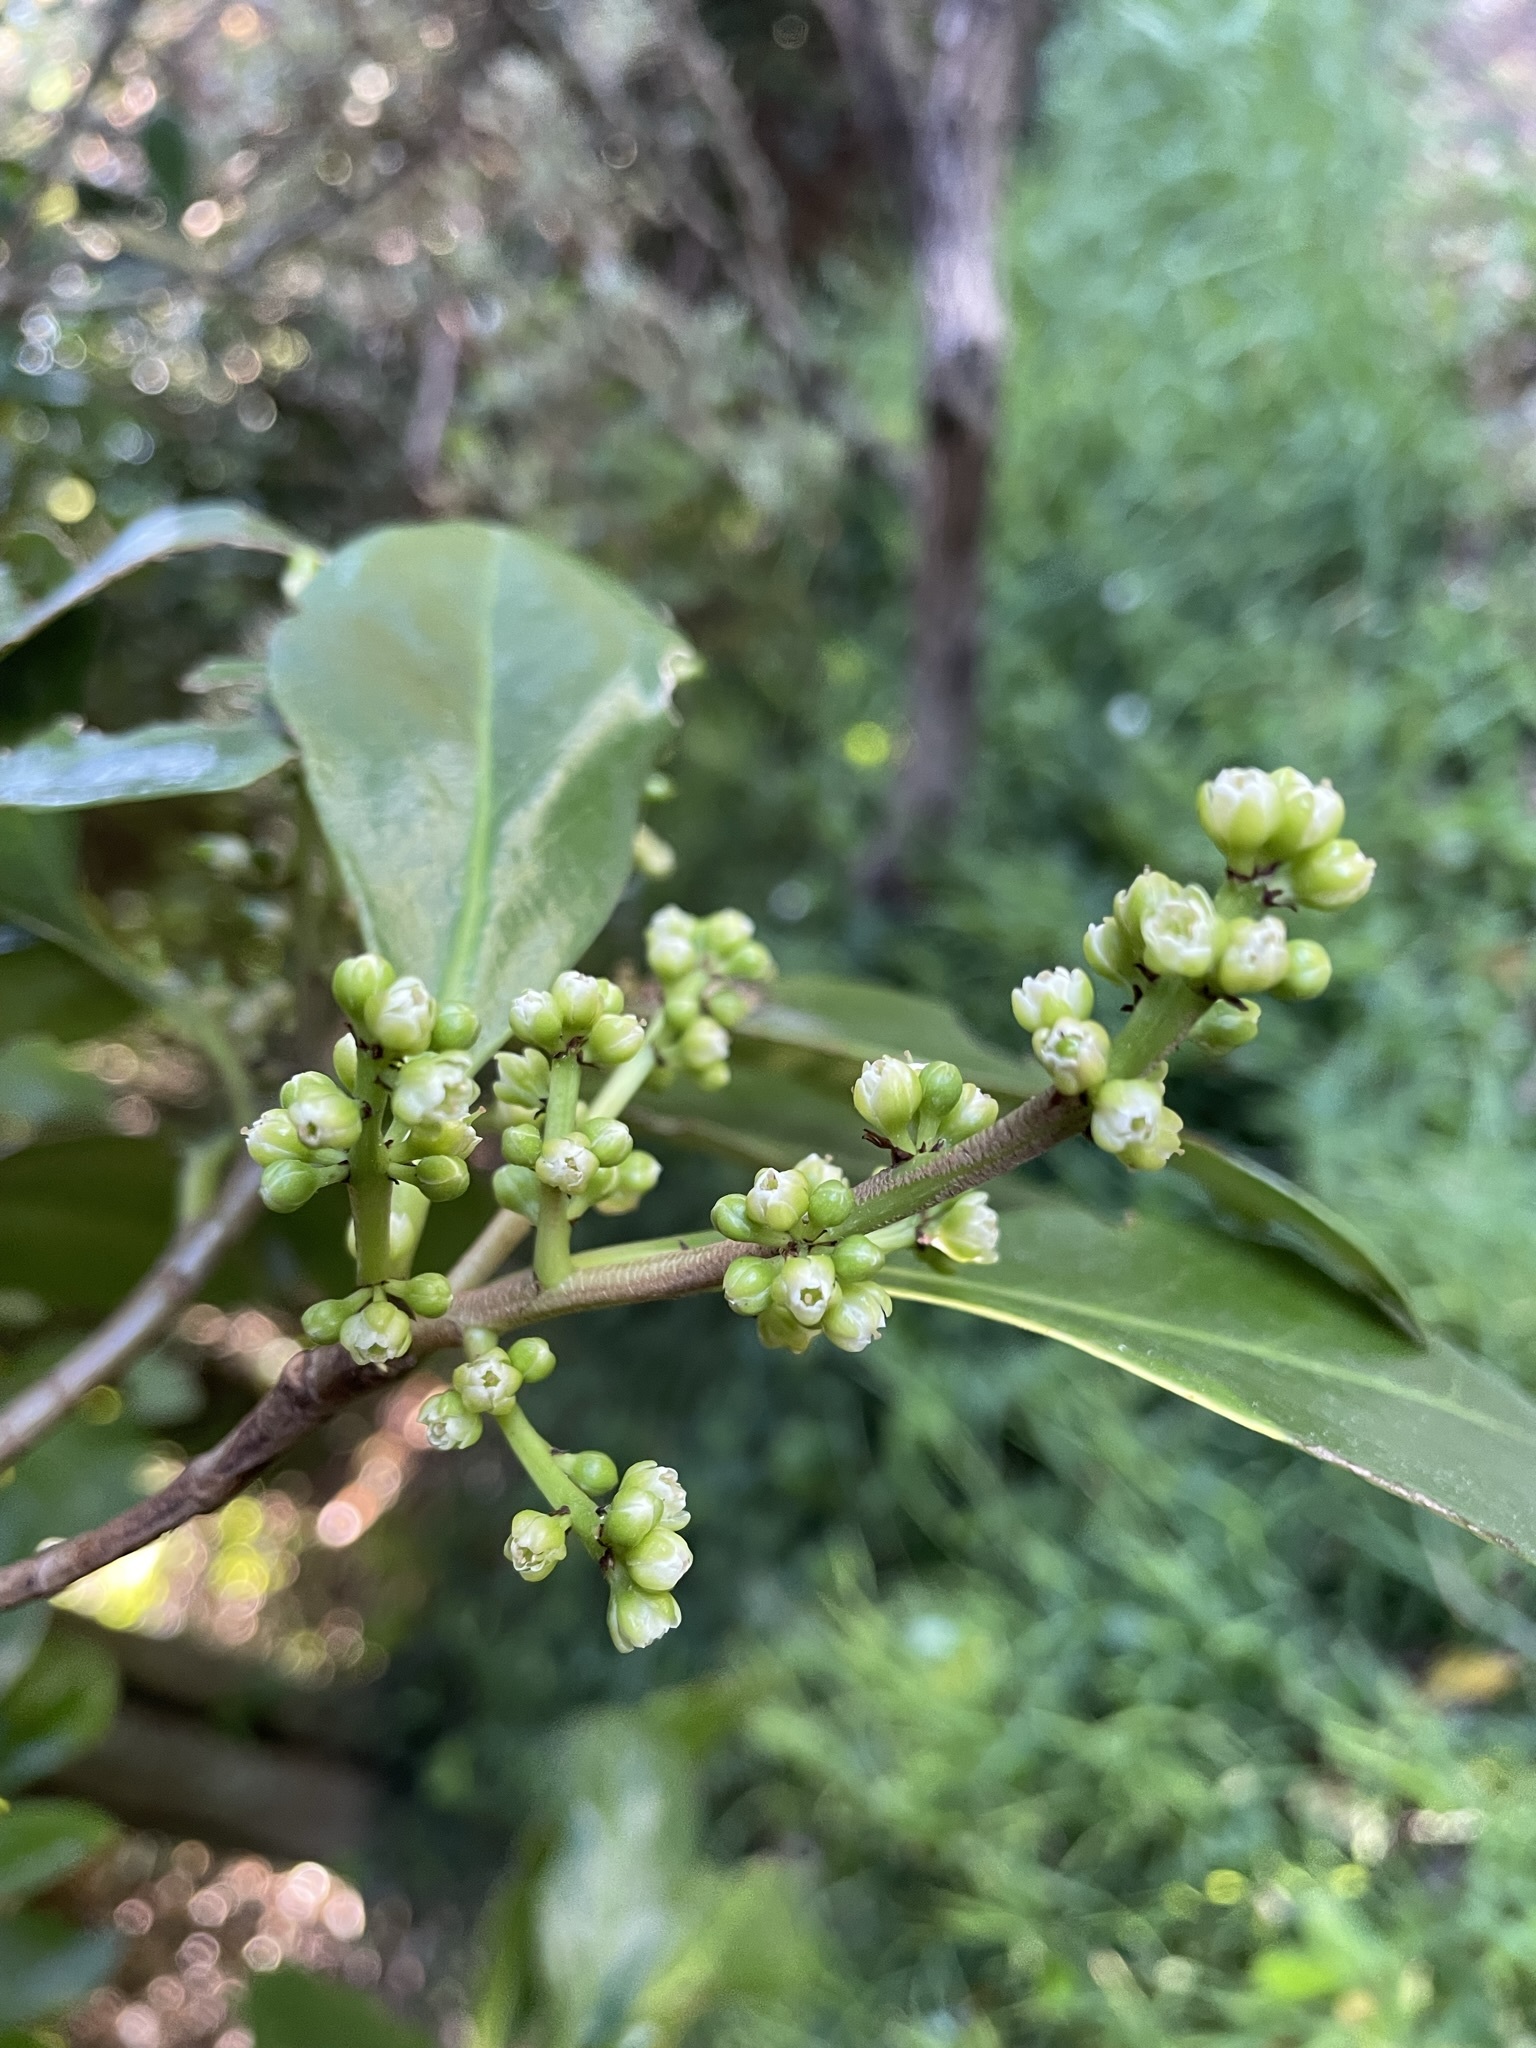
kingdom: Plantae
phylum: Tracheophyta
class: Magnoliopsida
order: Cucurbitales
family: Corynocarpaceae
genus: Corynocarpus
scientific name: Corynocarpus laevigatus
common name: New zealand laurel
